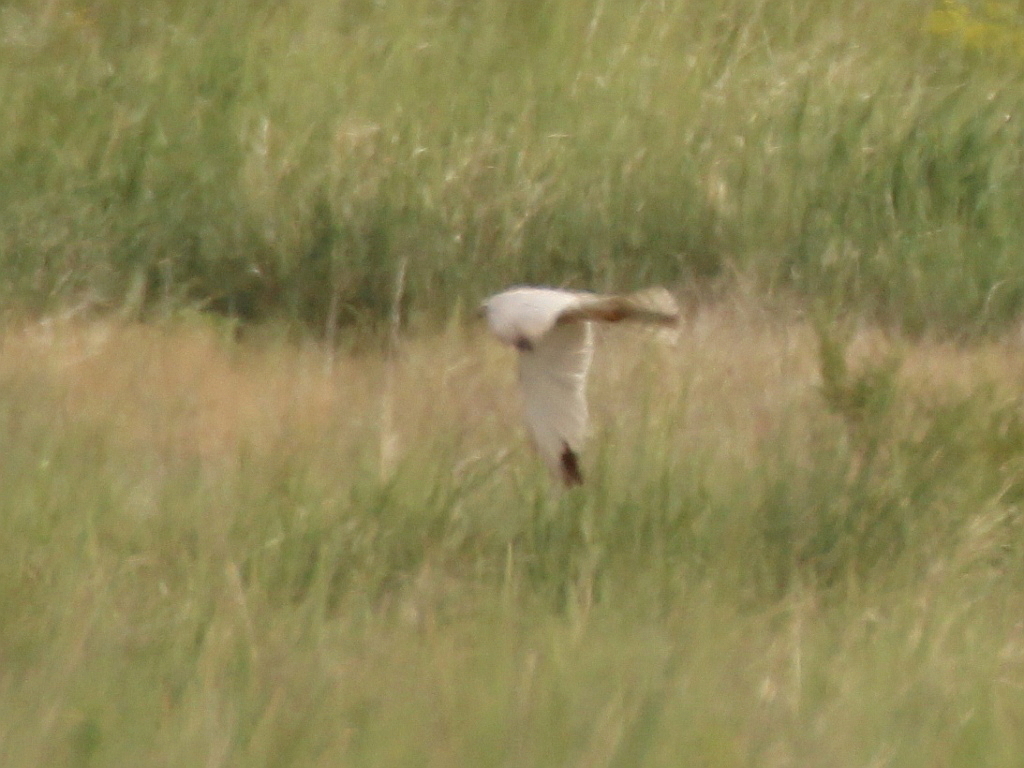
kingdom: Animalia
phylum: Chordata
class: Aves
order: Accipitriformes
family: Accipitridae
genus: Circus
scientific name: Circus macrourus
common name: Pallid harrier
